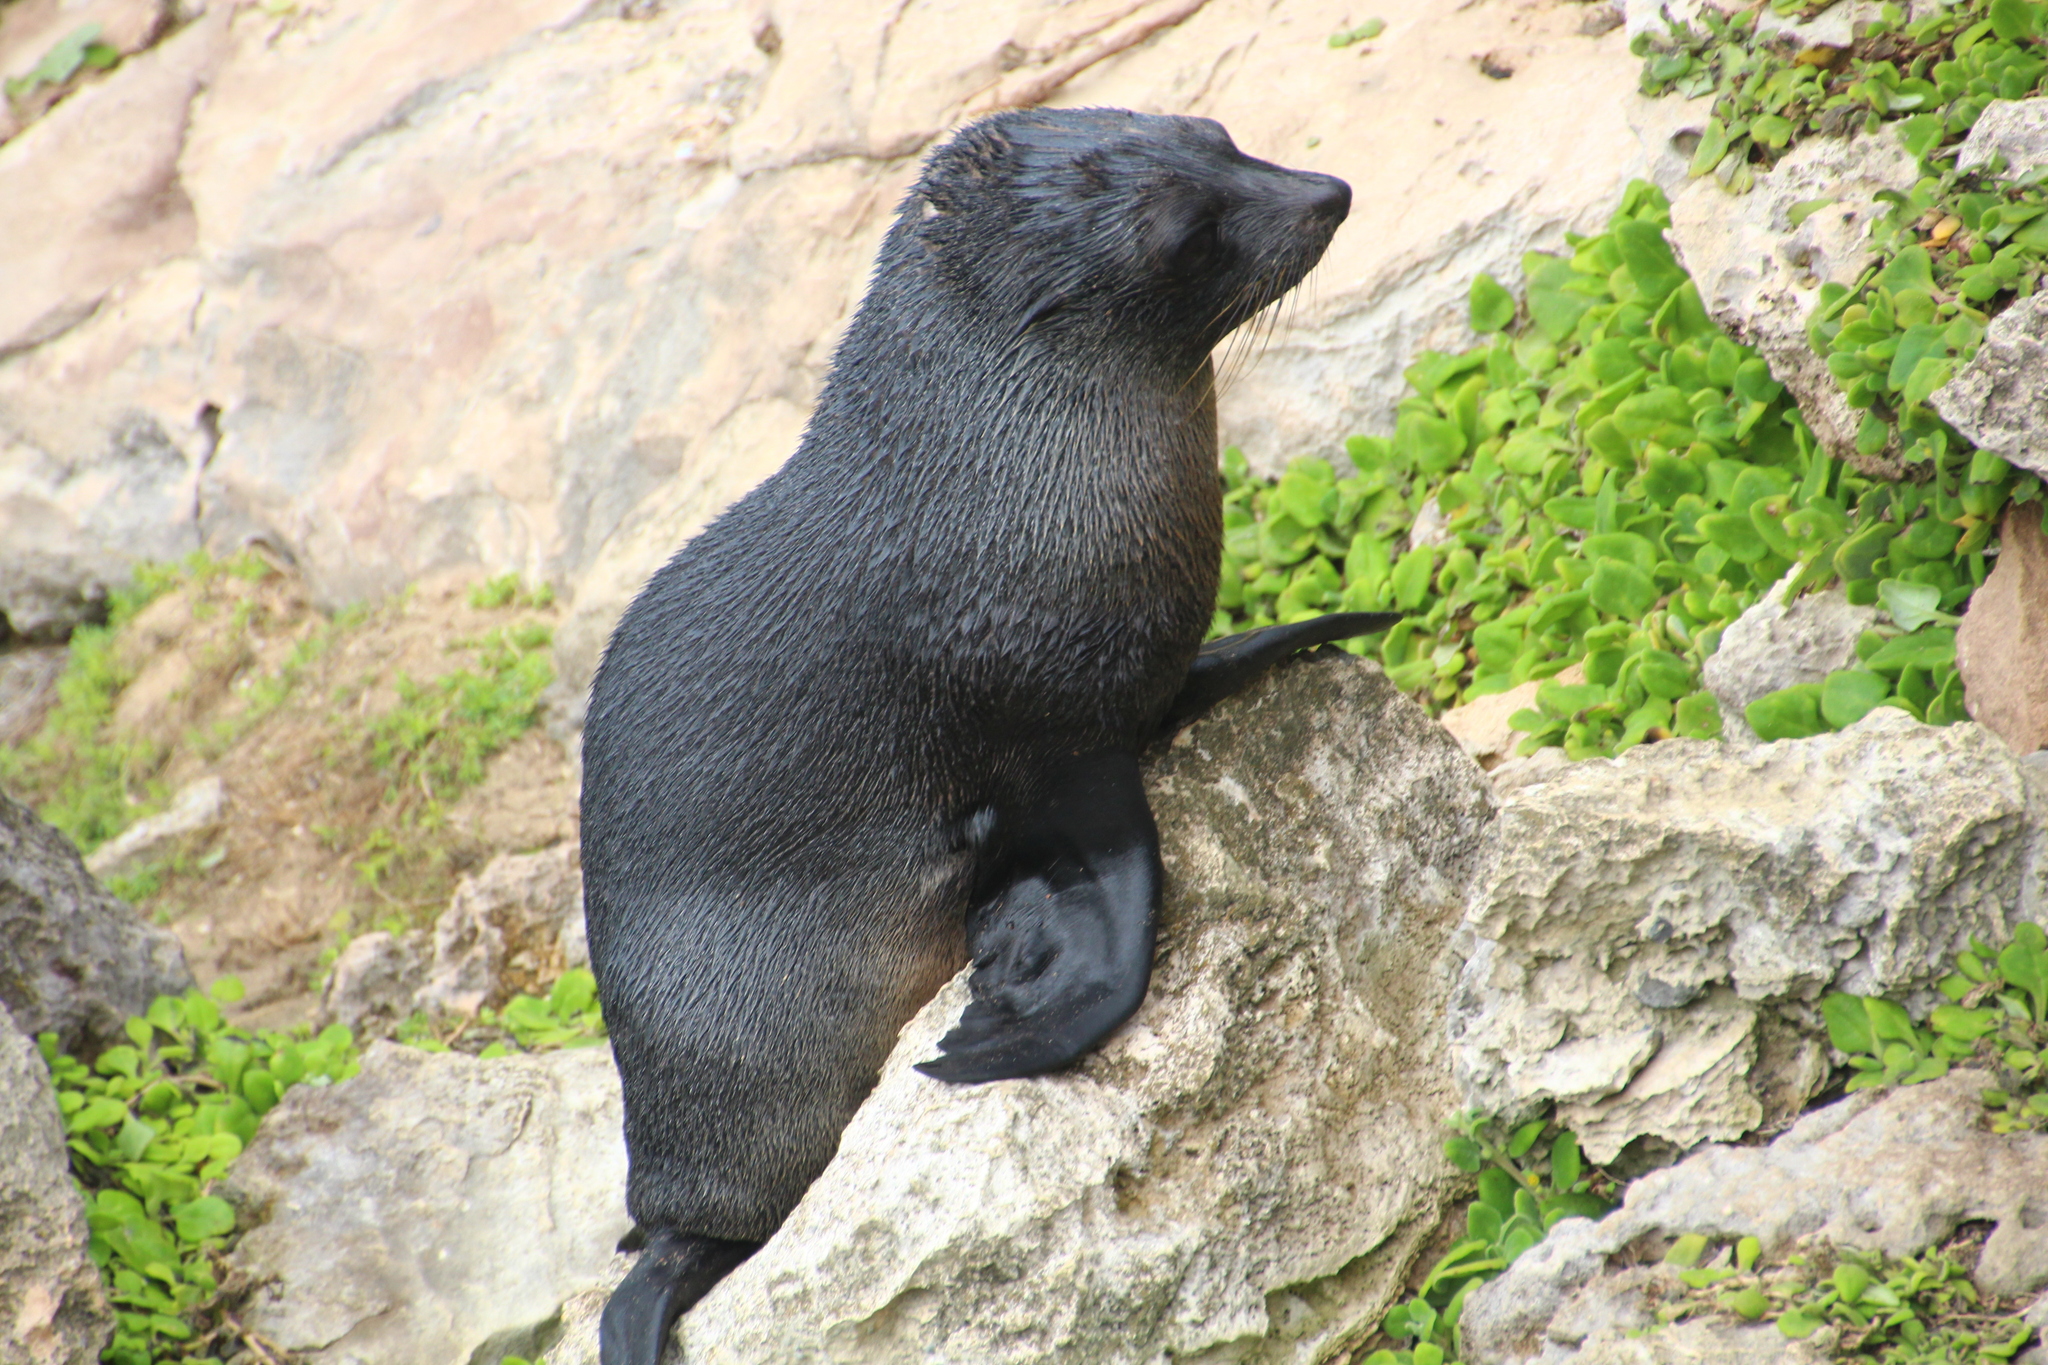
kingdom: Animalia
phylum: Chordata
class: Mammalia
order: Carnivora
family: Otariidae
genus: Arctocephalus
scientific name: Arctocephalus forsteri
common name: New zealand fur seal
